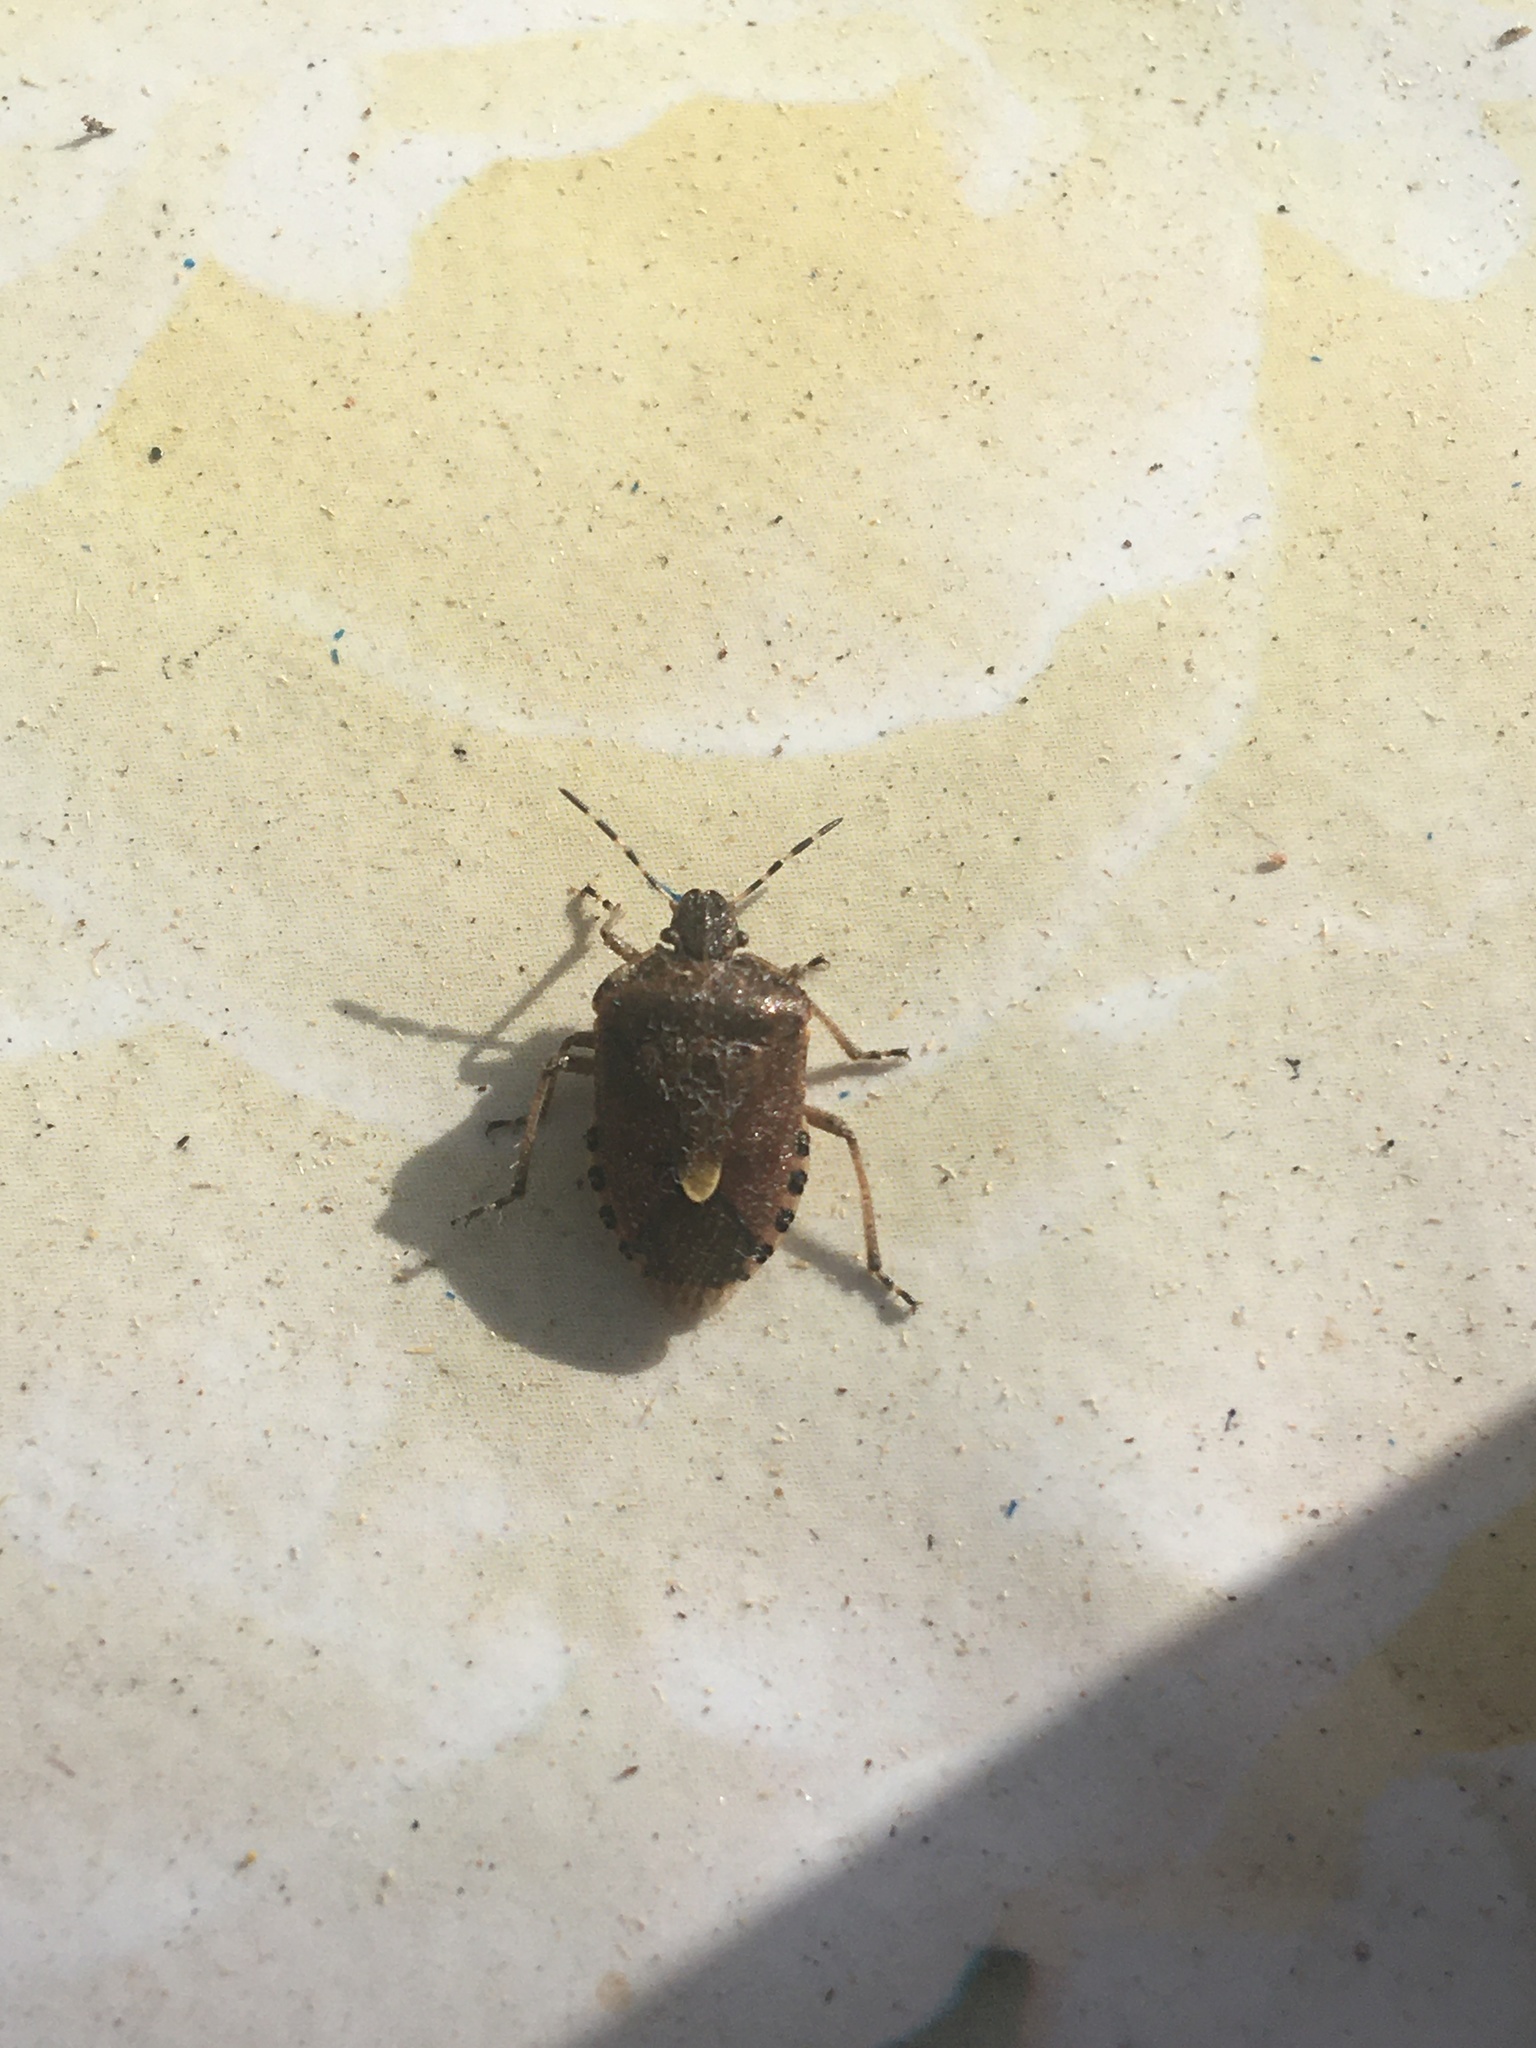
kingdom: Animalia
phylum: Arthropoda
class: Insecta
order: Hemiptera
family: Pentatomidae
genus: Dolycoris
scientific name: Dolycoris baccarum
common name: Sloe bug
